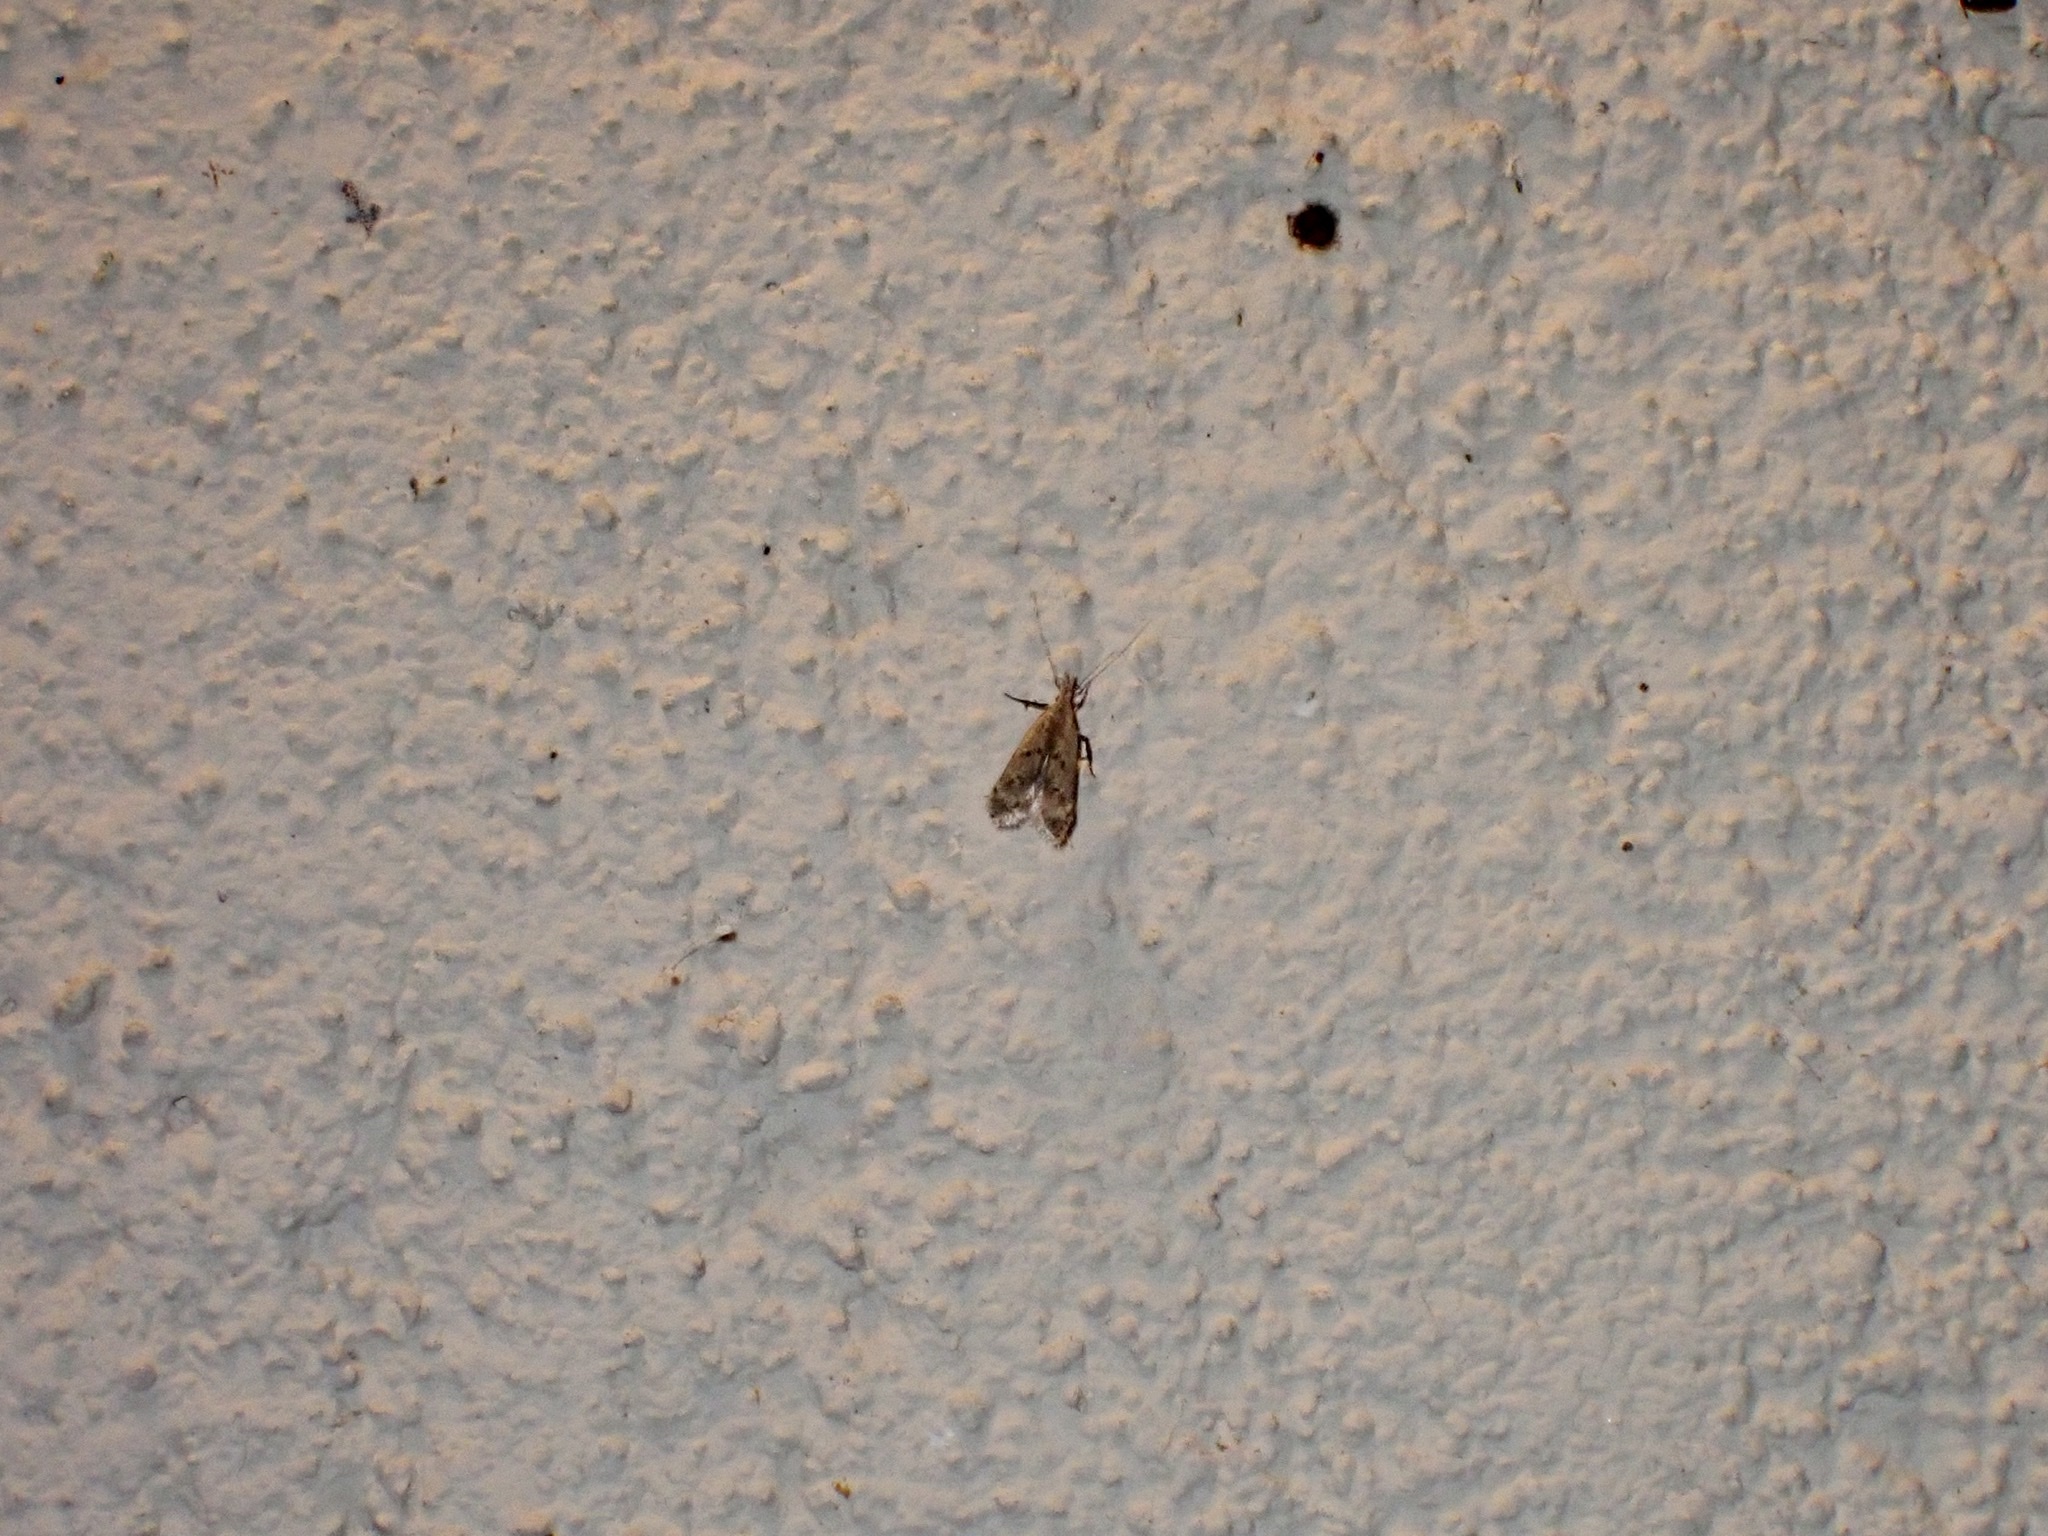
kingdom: Animalia
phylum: Arthropoda
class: Insecta
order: Lepidoptera
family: Gelechiidae
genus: Dichomeris
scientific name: Dichomeris punctipennella
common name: Many-spotted dichomeris moth
